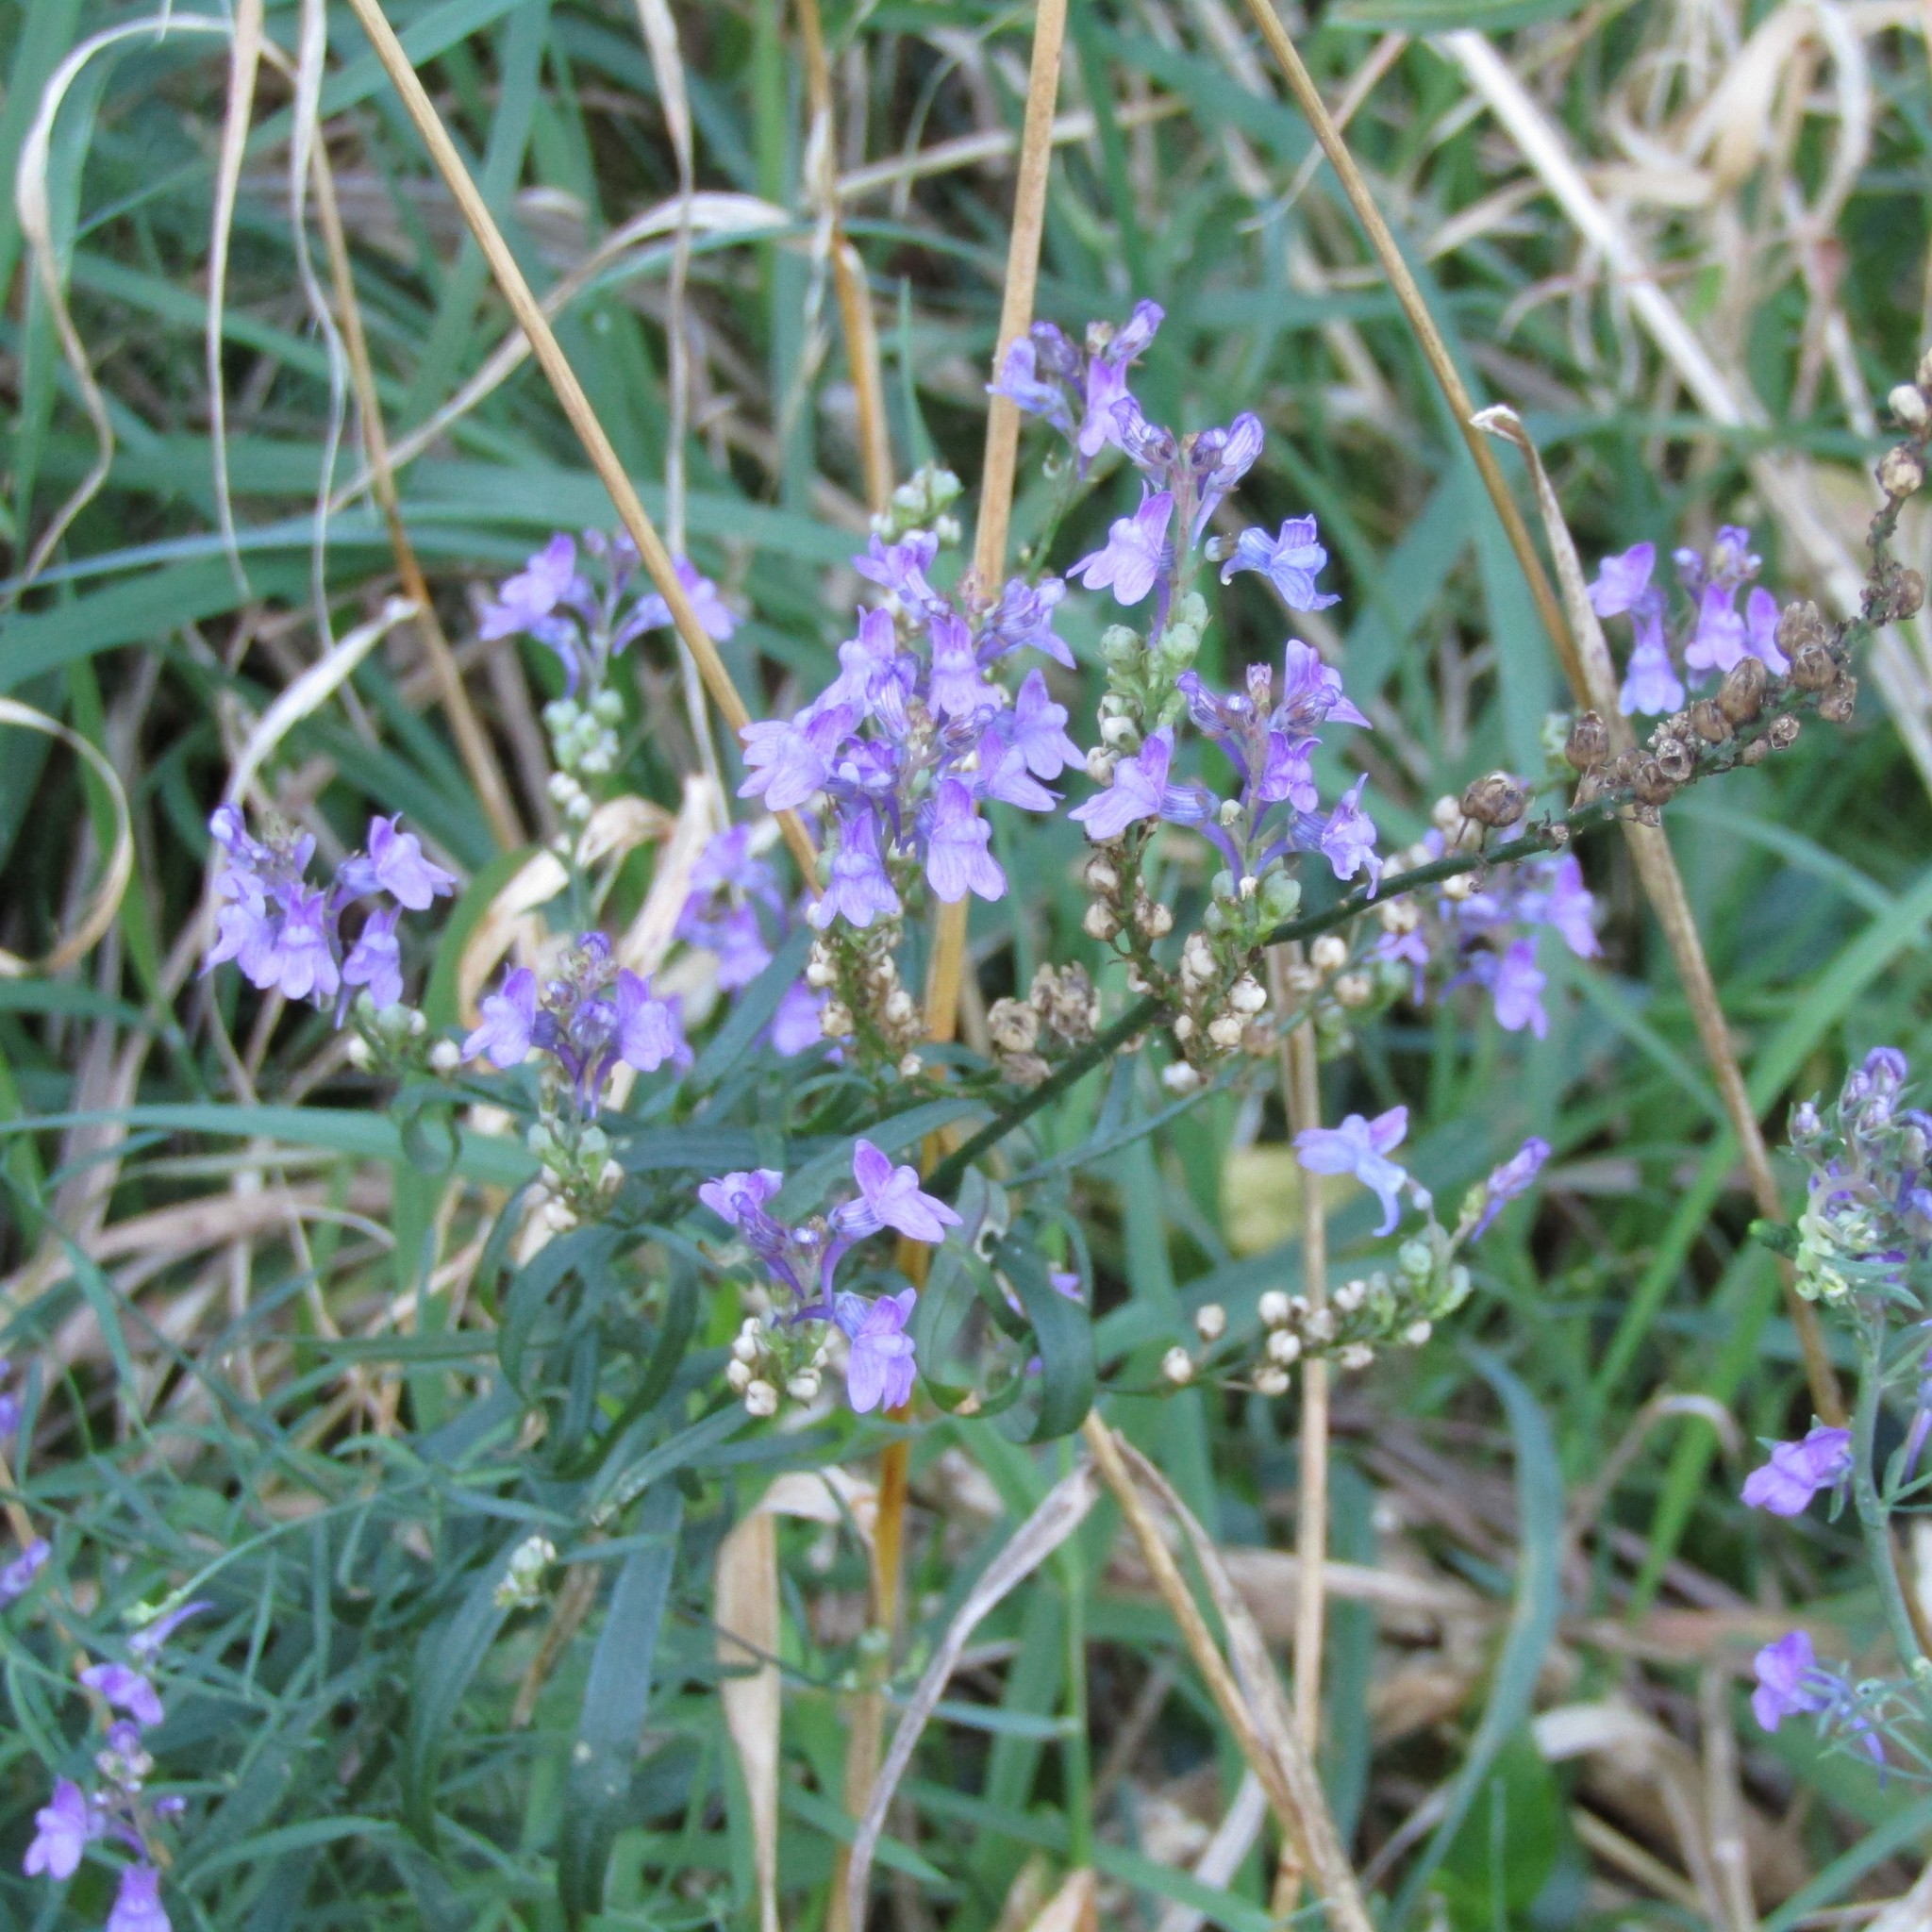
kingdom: Plantae
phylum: Tracheophyta
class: Magnoliopsida
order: Lamiales
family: Plantaginaceae
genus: Linaria
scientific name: Linaria purpurea
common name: Purple toadflax
